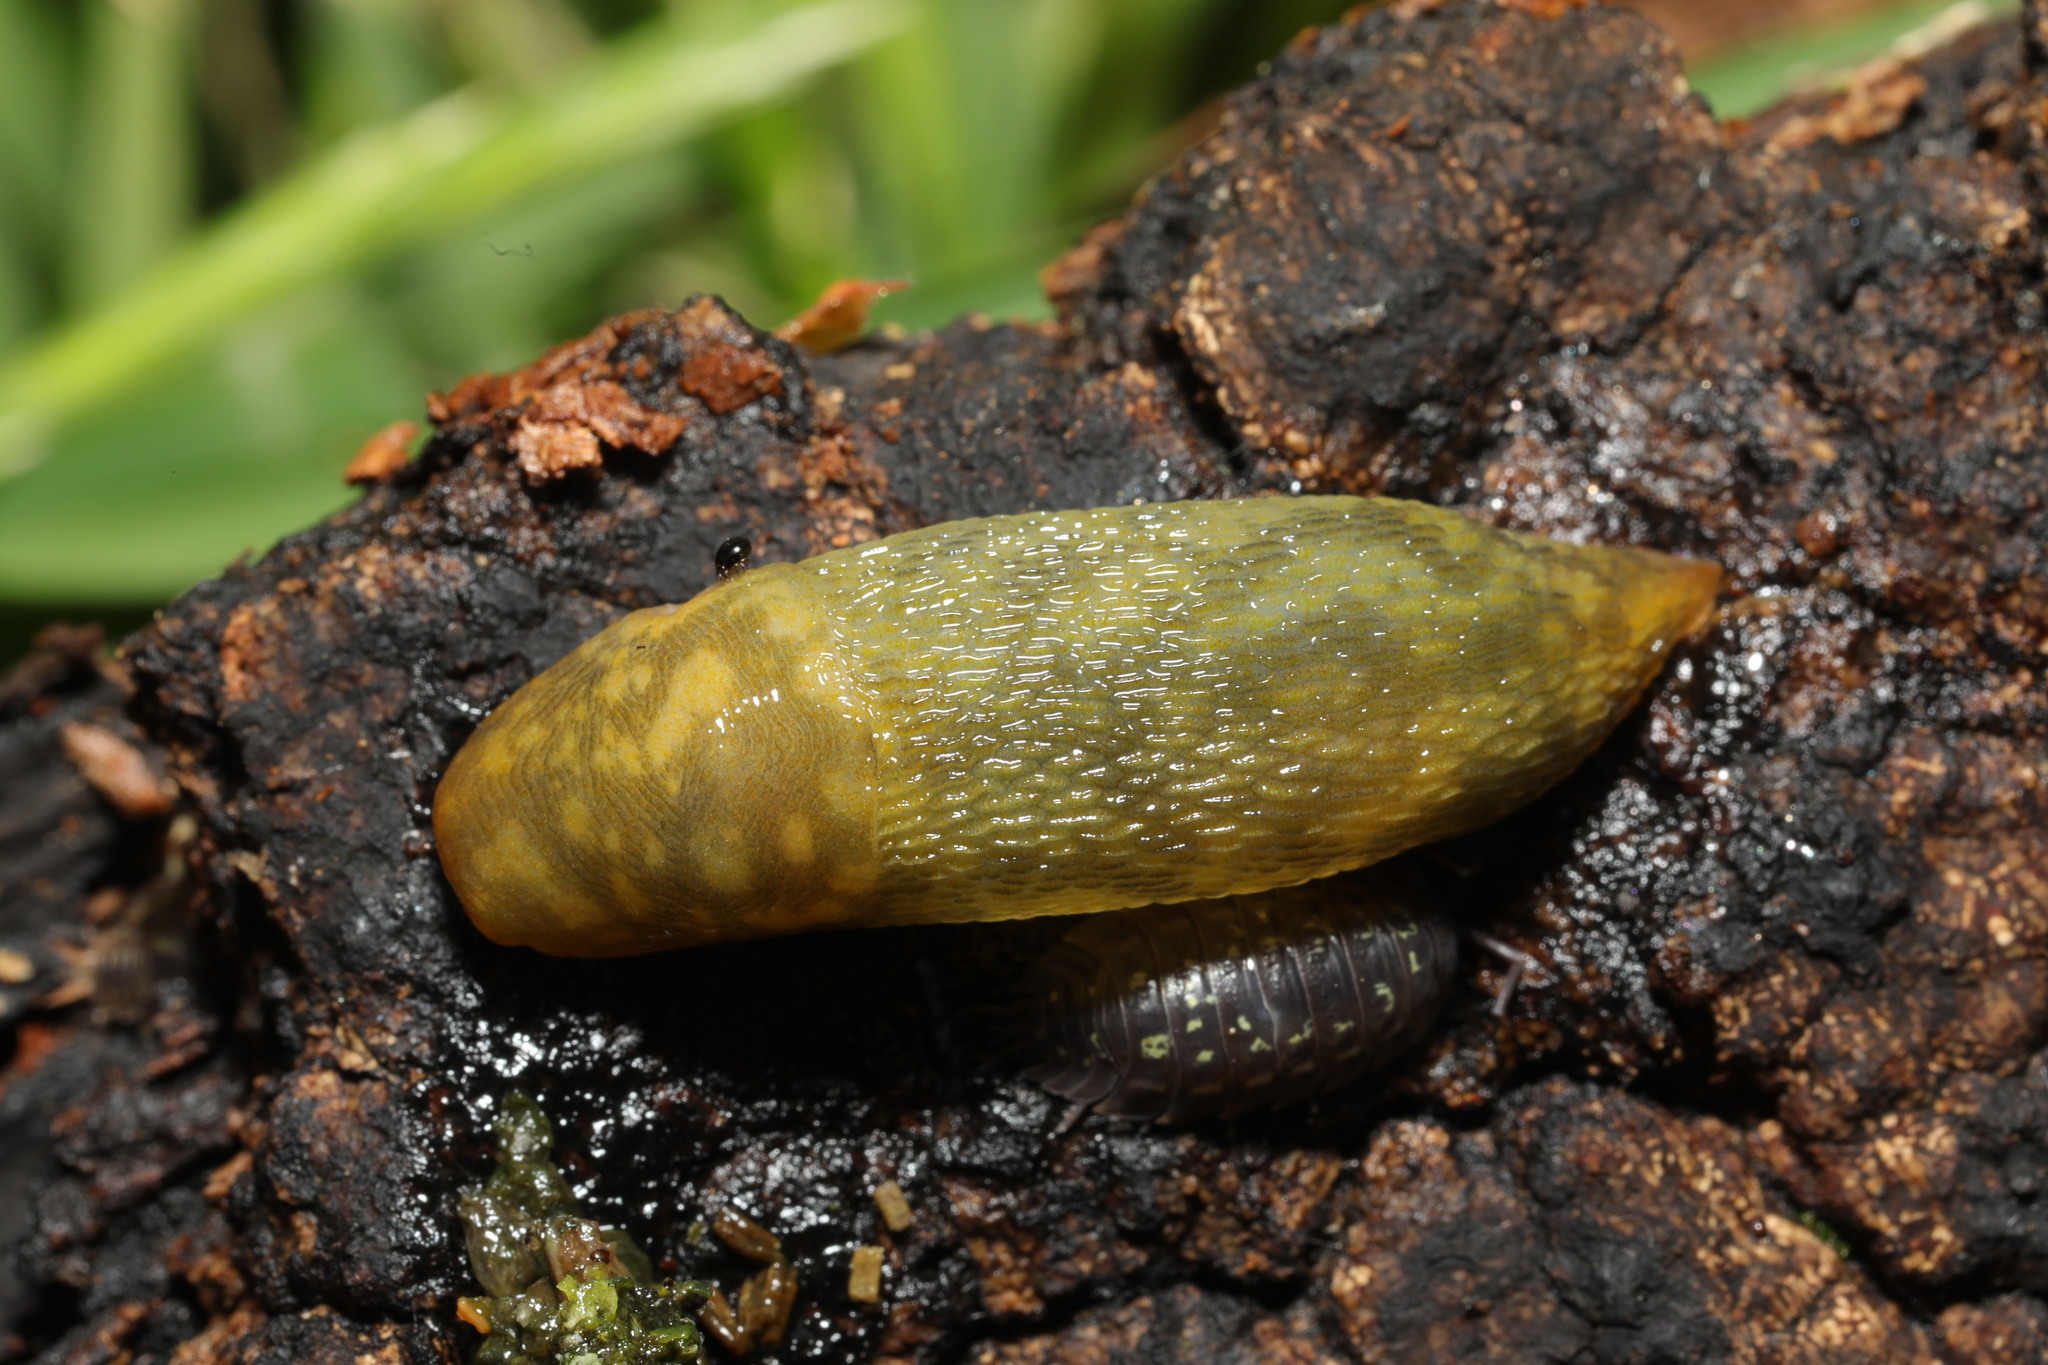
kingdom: Animalia
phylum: Mollusca
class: Gastropoda
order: Stylommatophora
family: Limacidae
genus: Limacus
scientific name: Limacus maculatus
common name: Irish yellow slug
